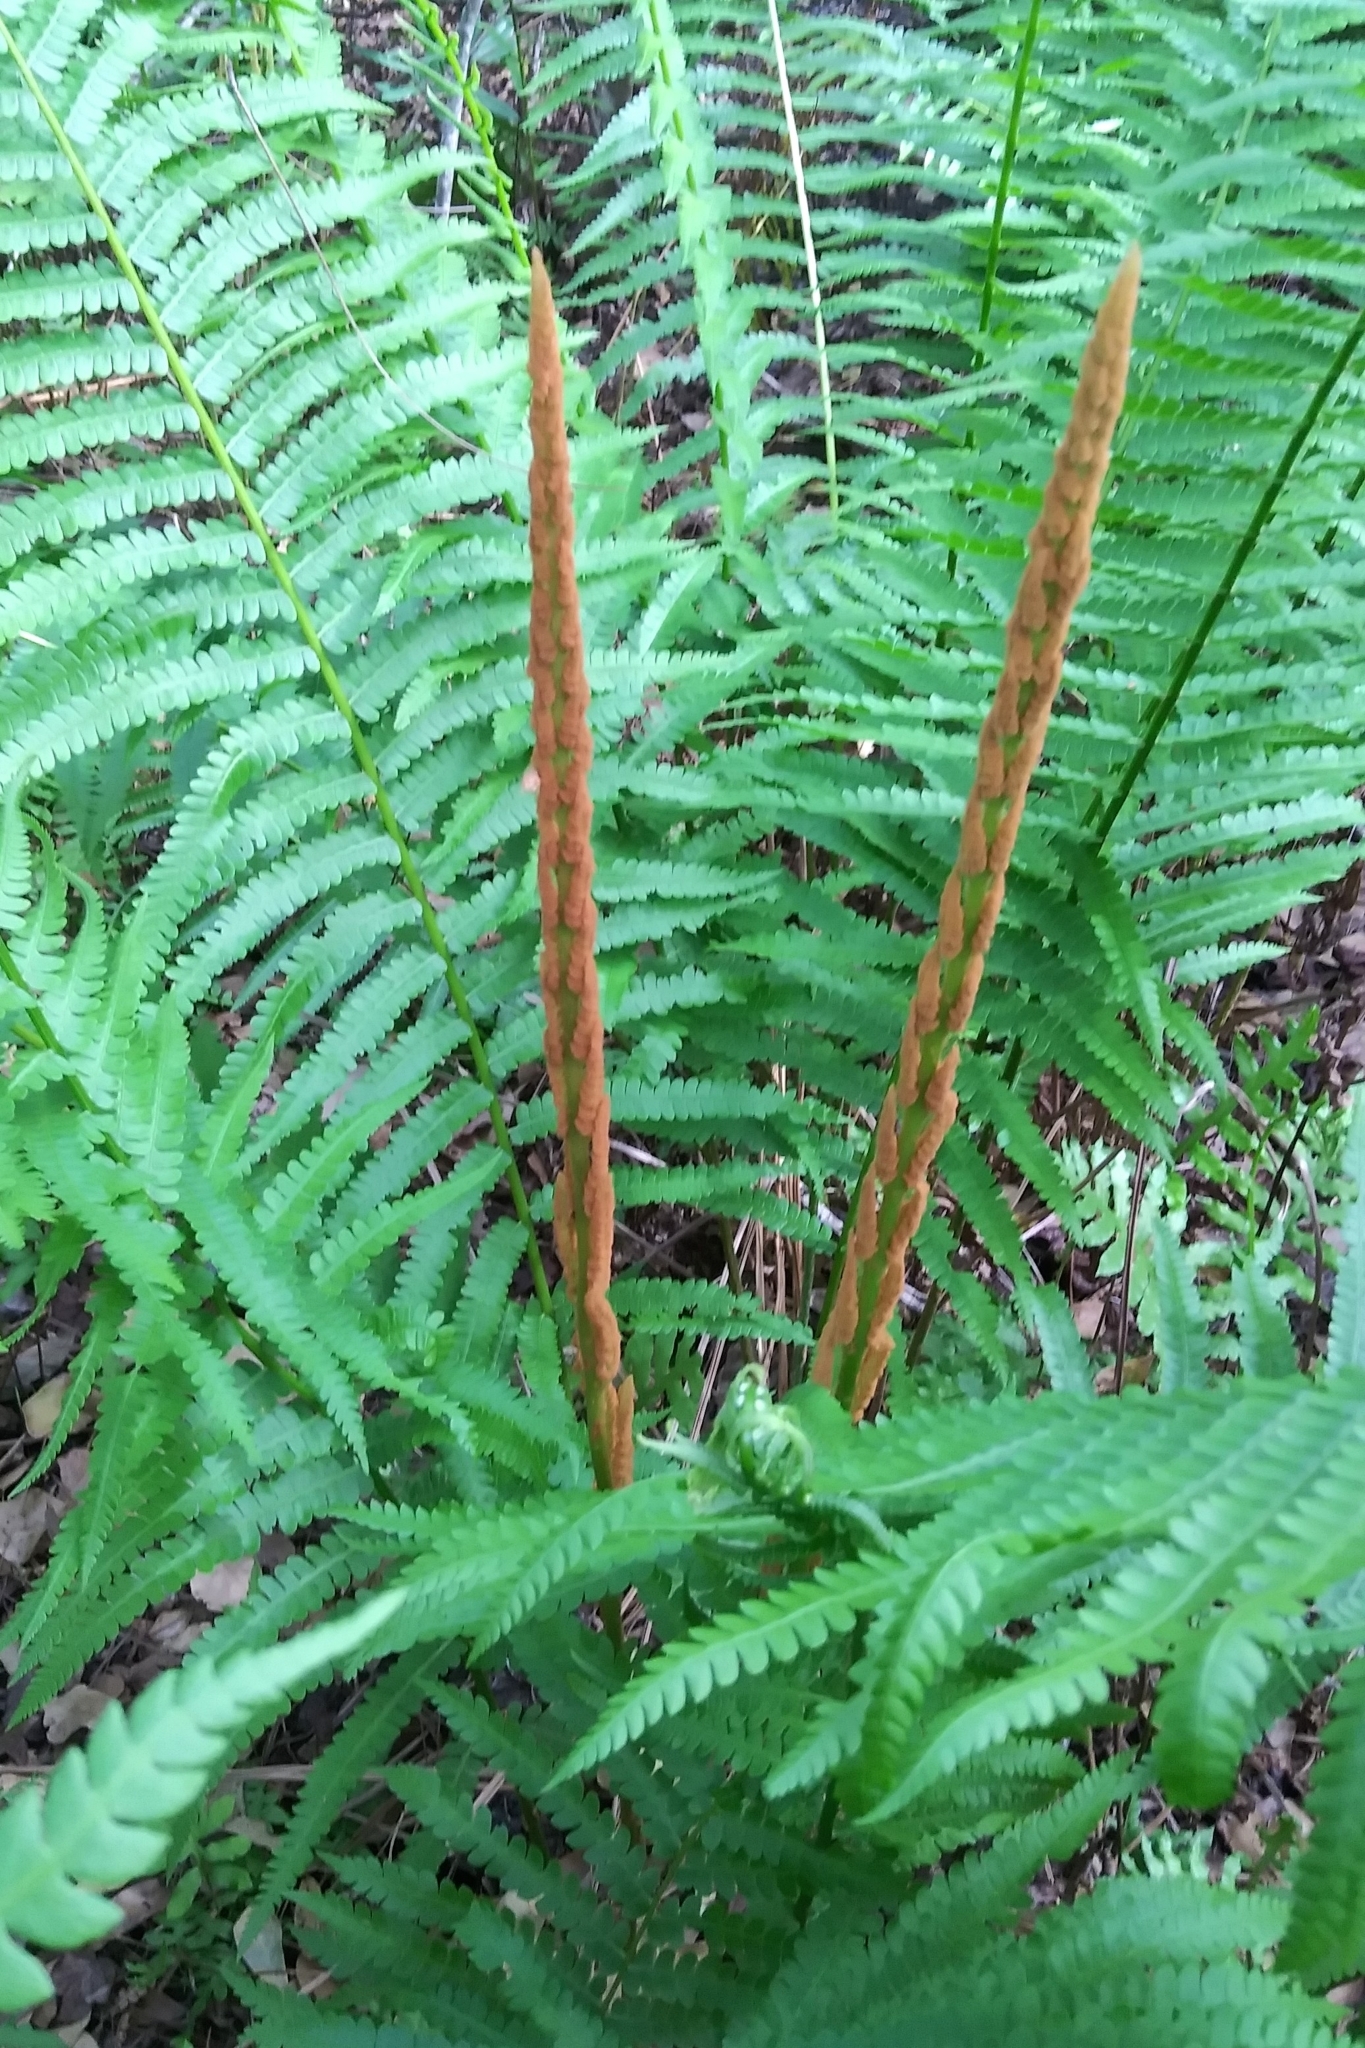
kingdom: Plantae
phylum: Tracheophyta
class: Polypodiopsida
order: Osmundales
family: Osmundaceae
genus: Osmundastrum
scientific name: Osmundastrum cinnamomeum
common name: Cinnamon fern
